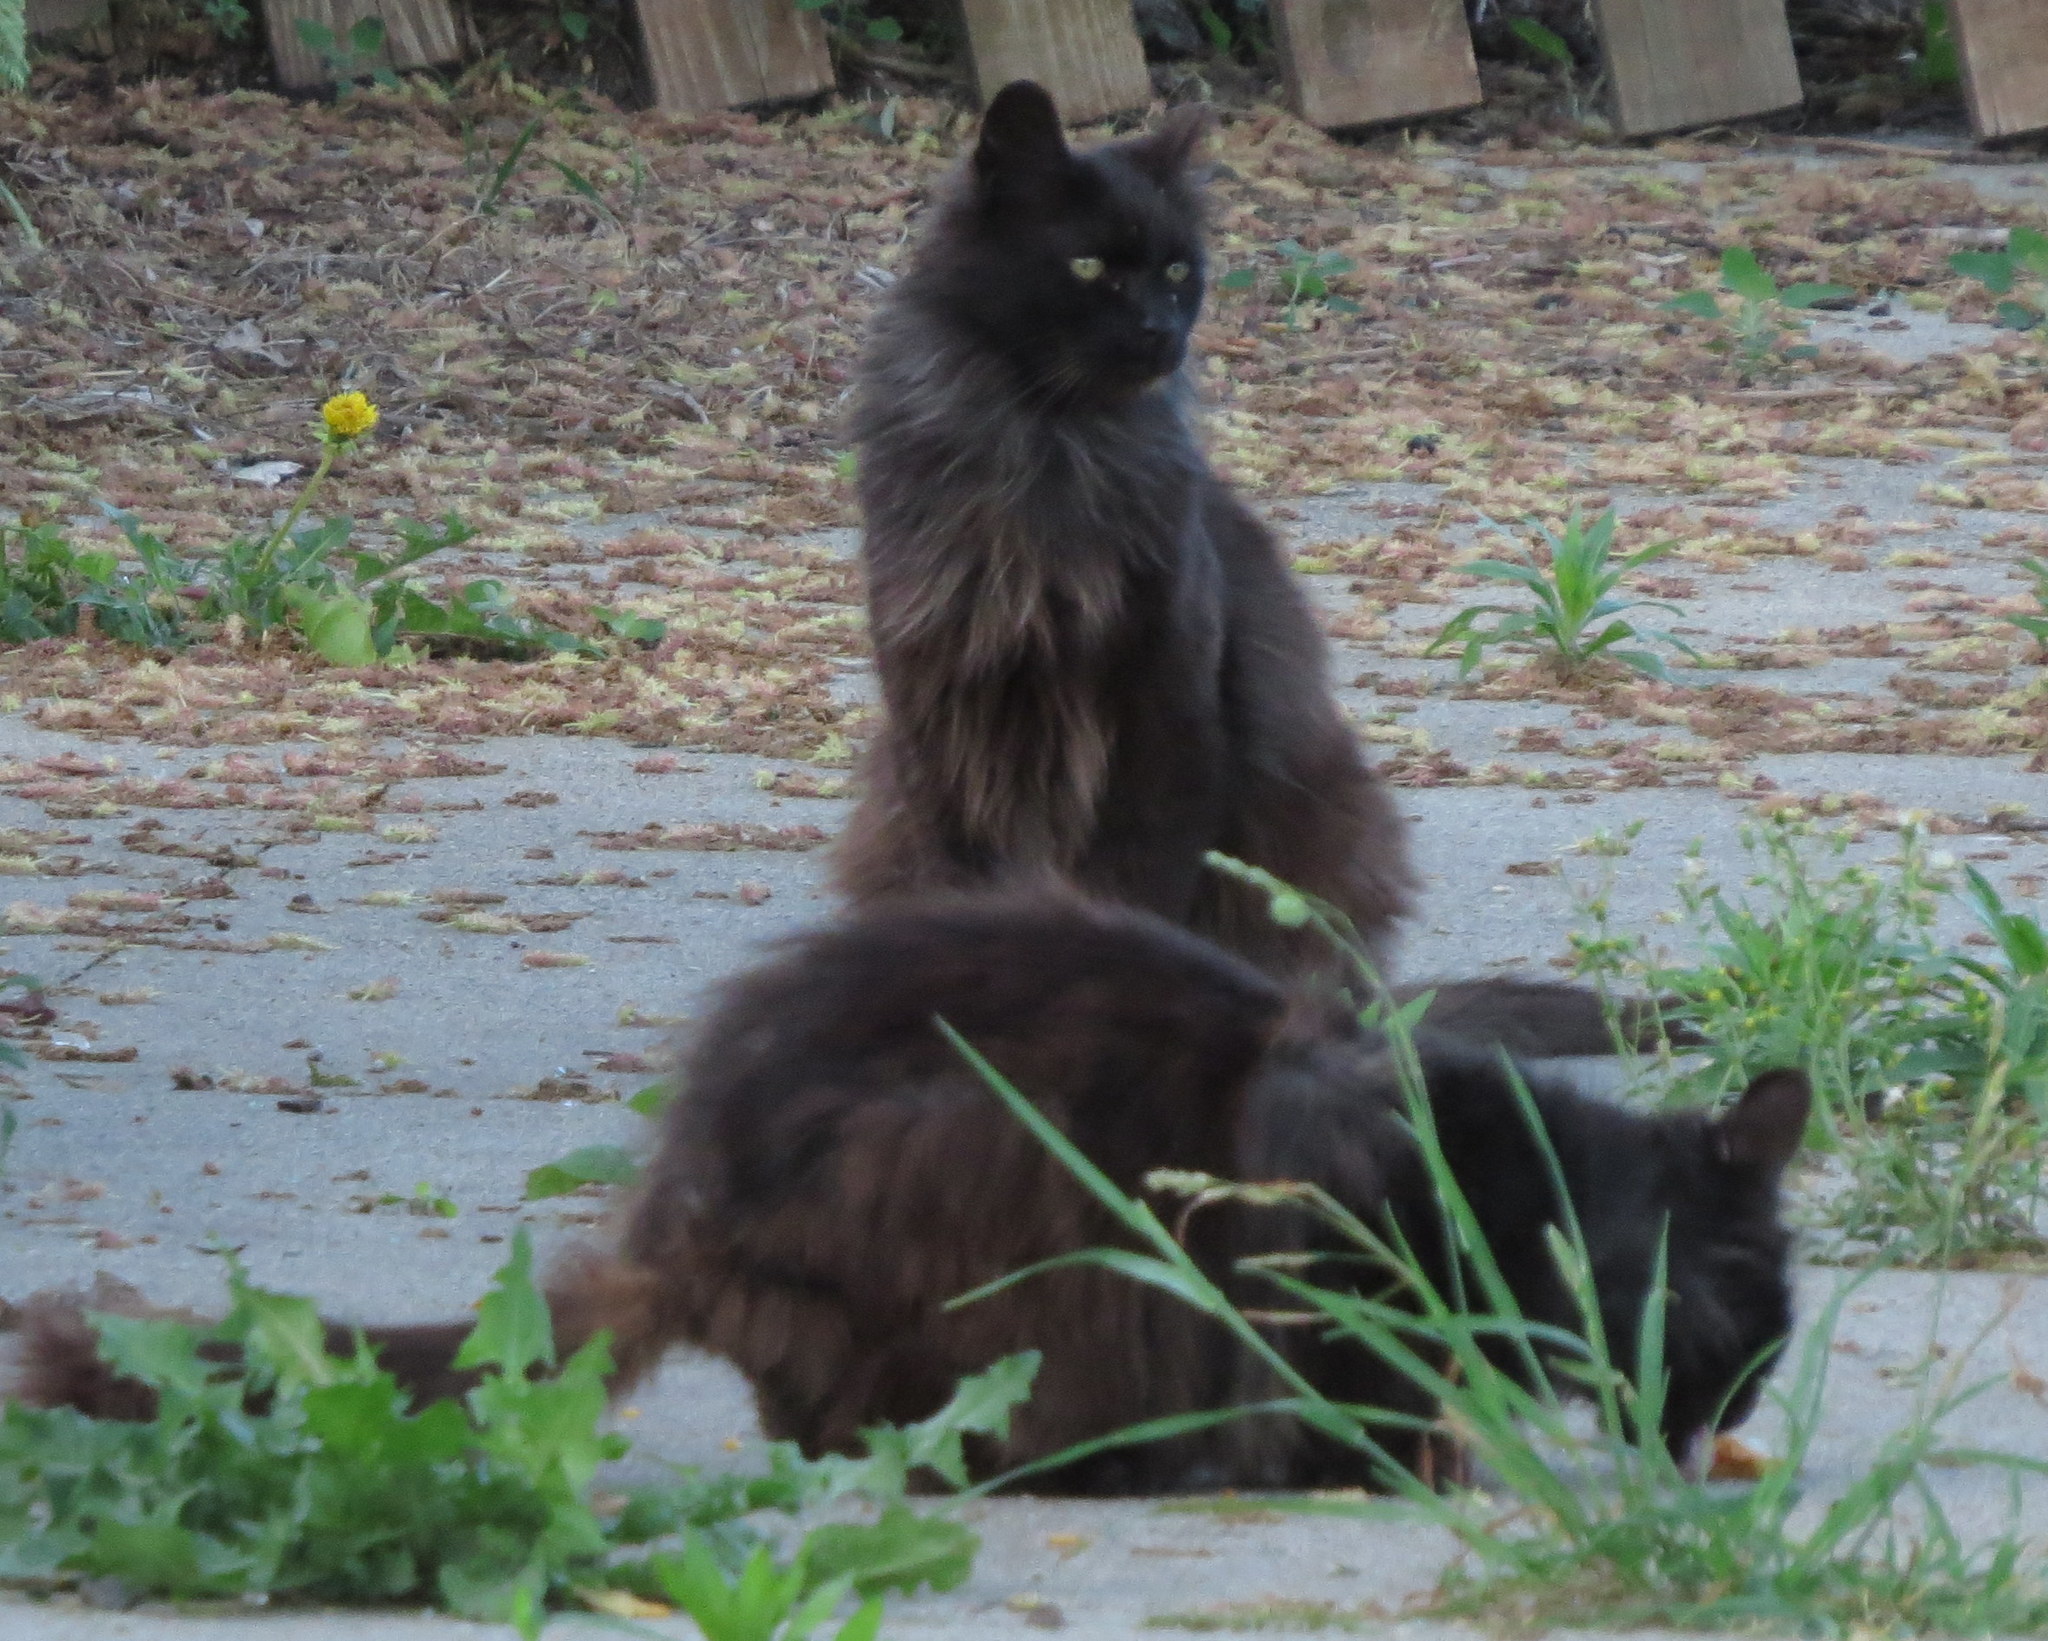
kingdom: Animalia
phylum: Chordata
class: Mammalia
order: Carnivora
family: Felidae
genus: Felis
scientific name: Felis catus
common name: Domestic cat
